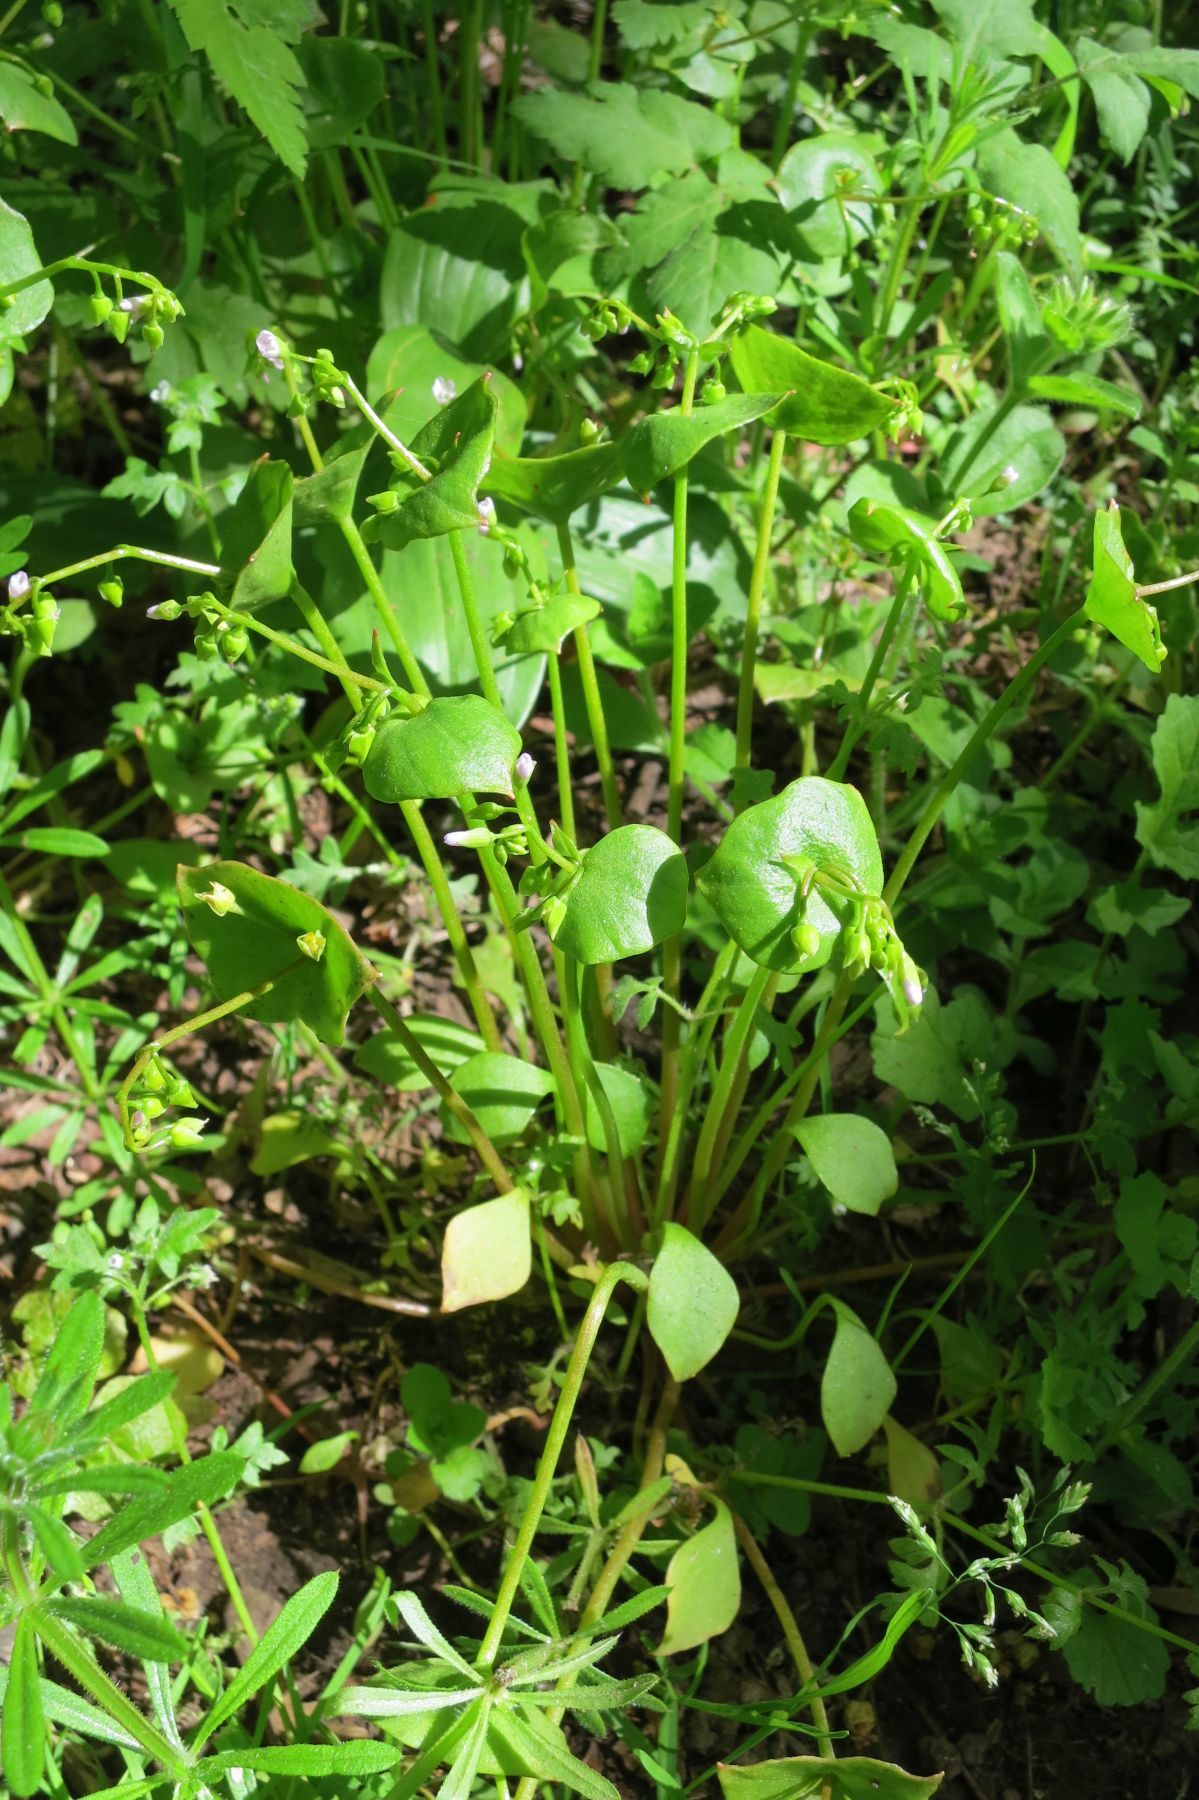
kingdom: Plantae
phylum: Tracheophyta
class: Magnoliopsida
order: Caryophyllales
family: Montiaceae
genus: Claytonia
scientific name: Claytonia perfoliata
